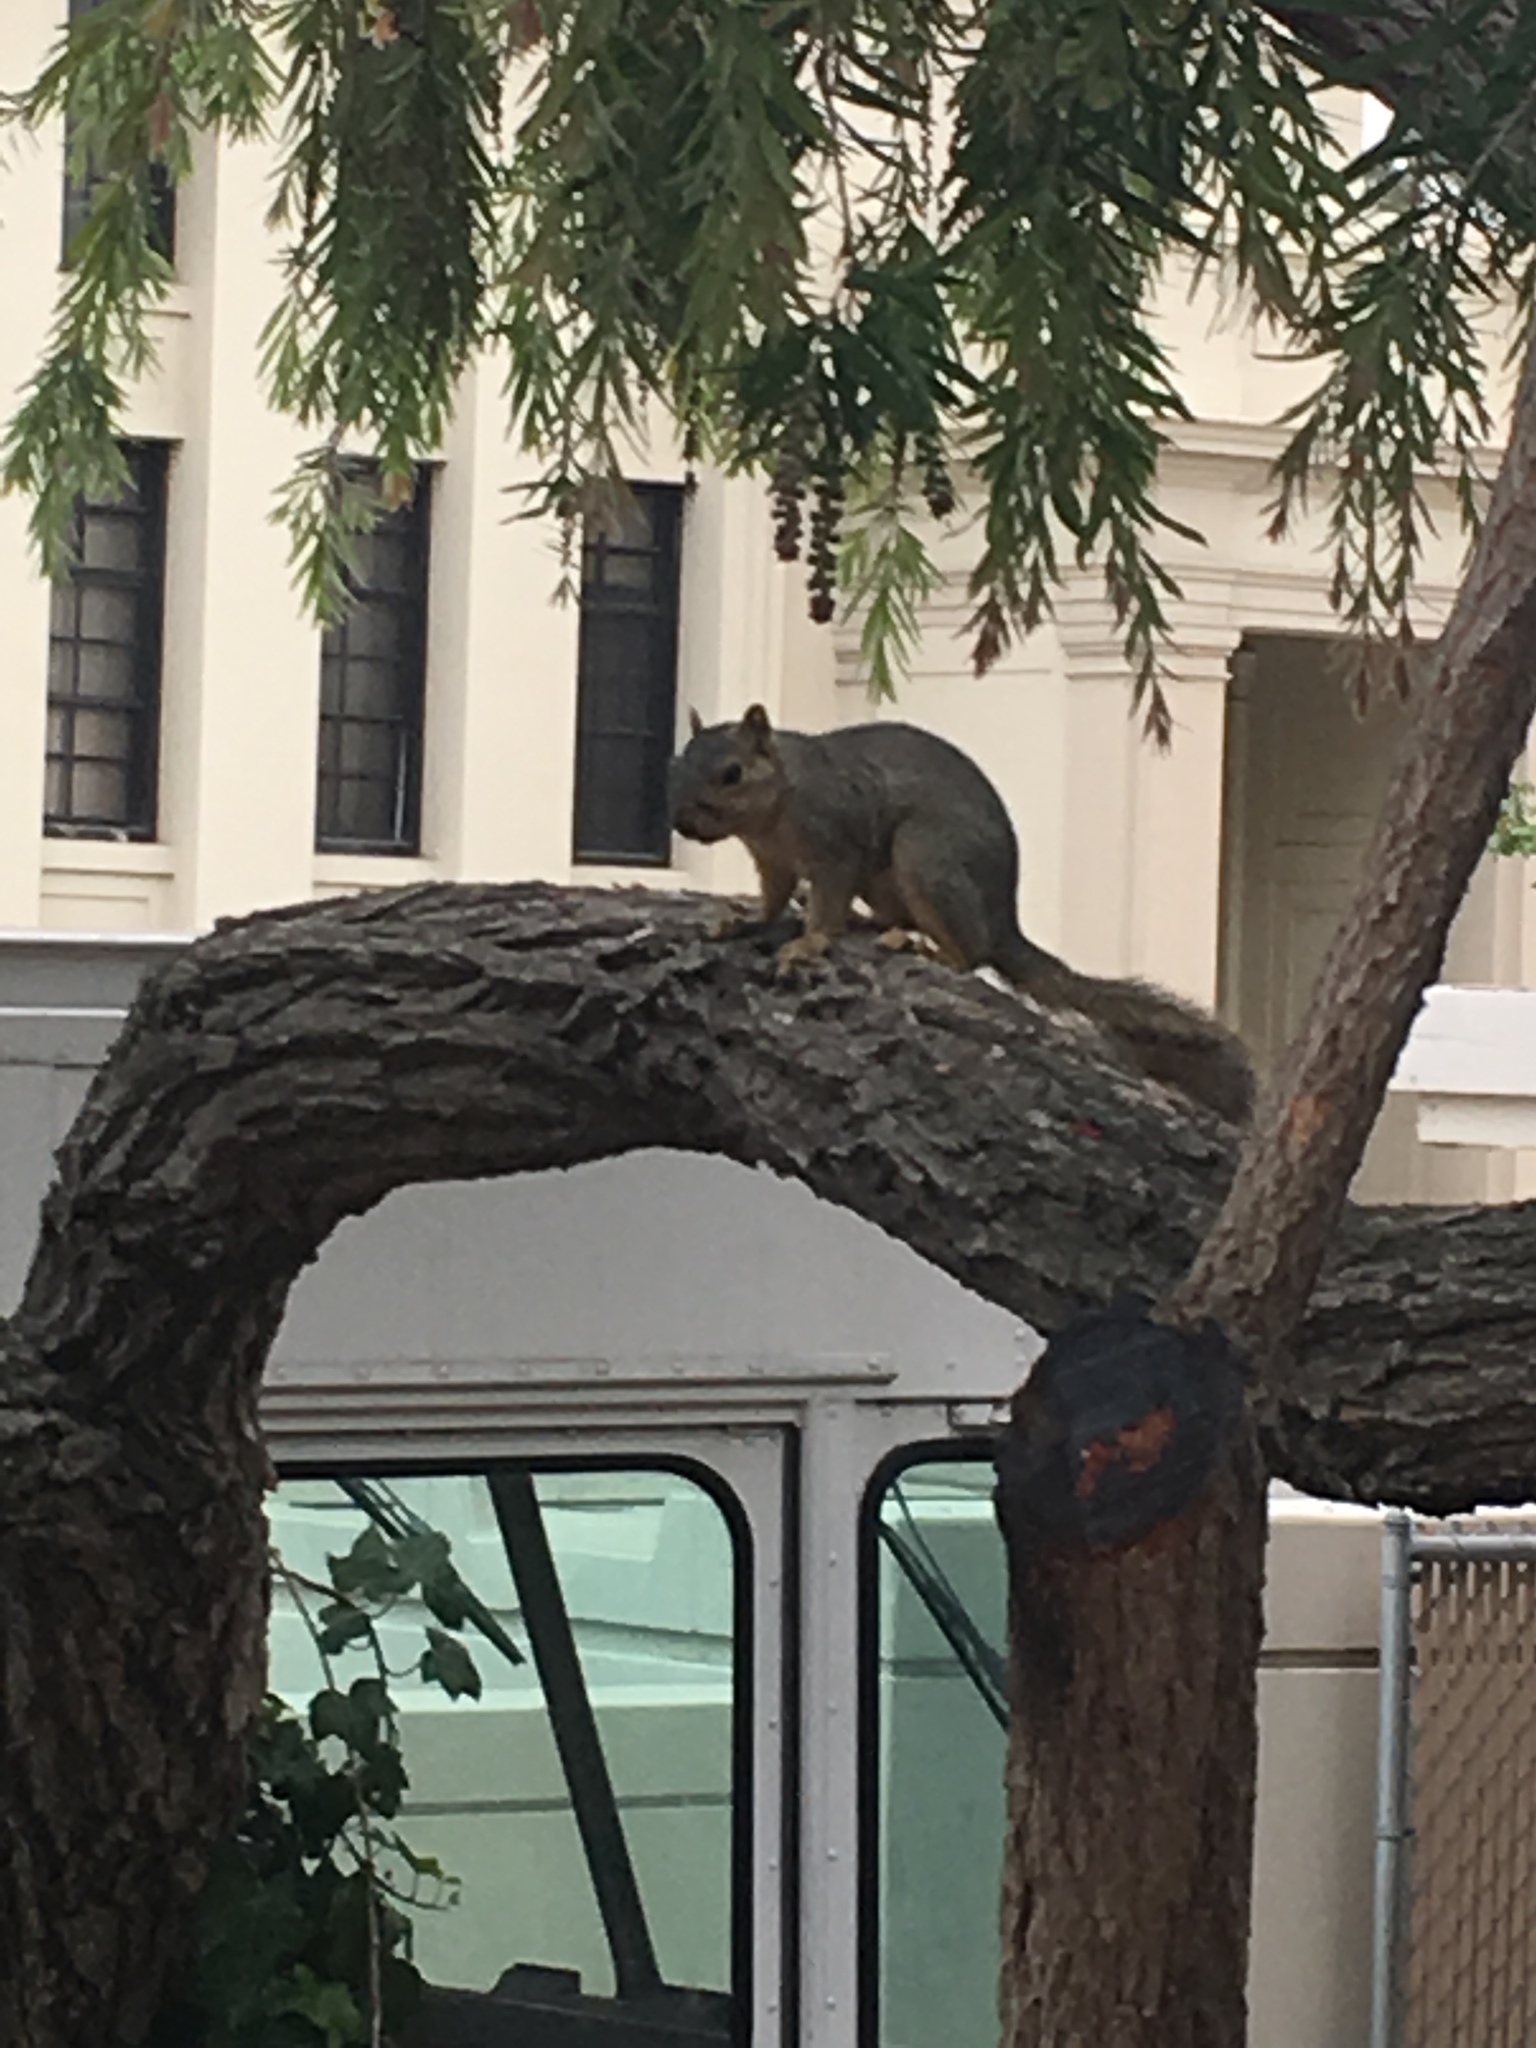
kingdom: Animalia
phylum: Chordata
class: Mammalia
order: Rodentia
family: Sciuridae
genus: Sciurus
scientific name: Sciurus niger
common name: Fox squirrel
